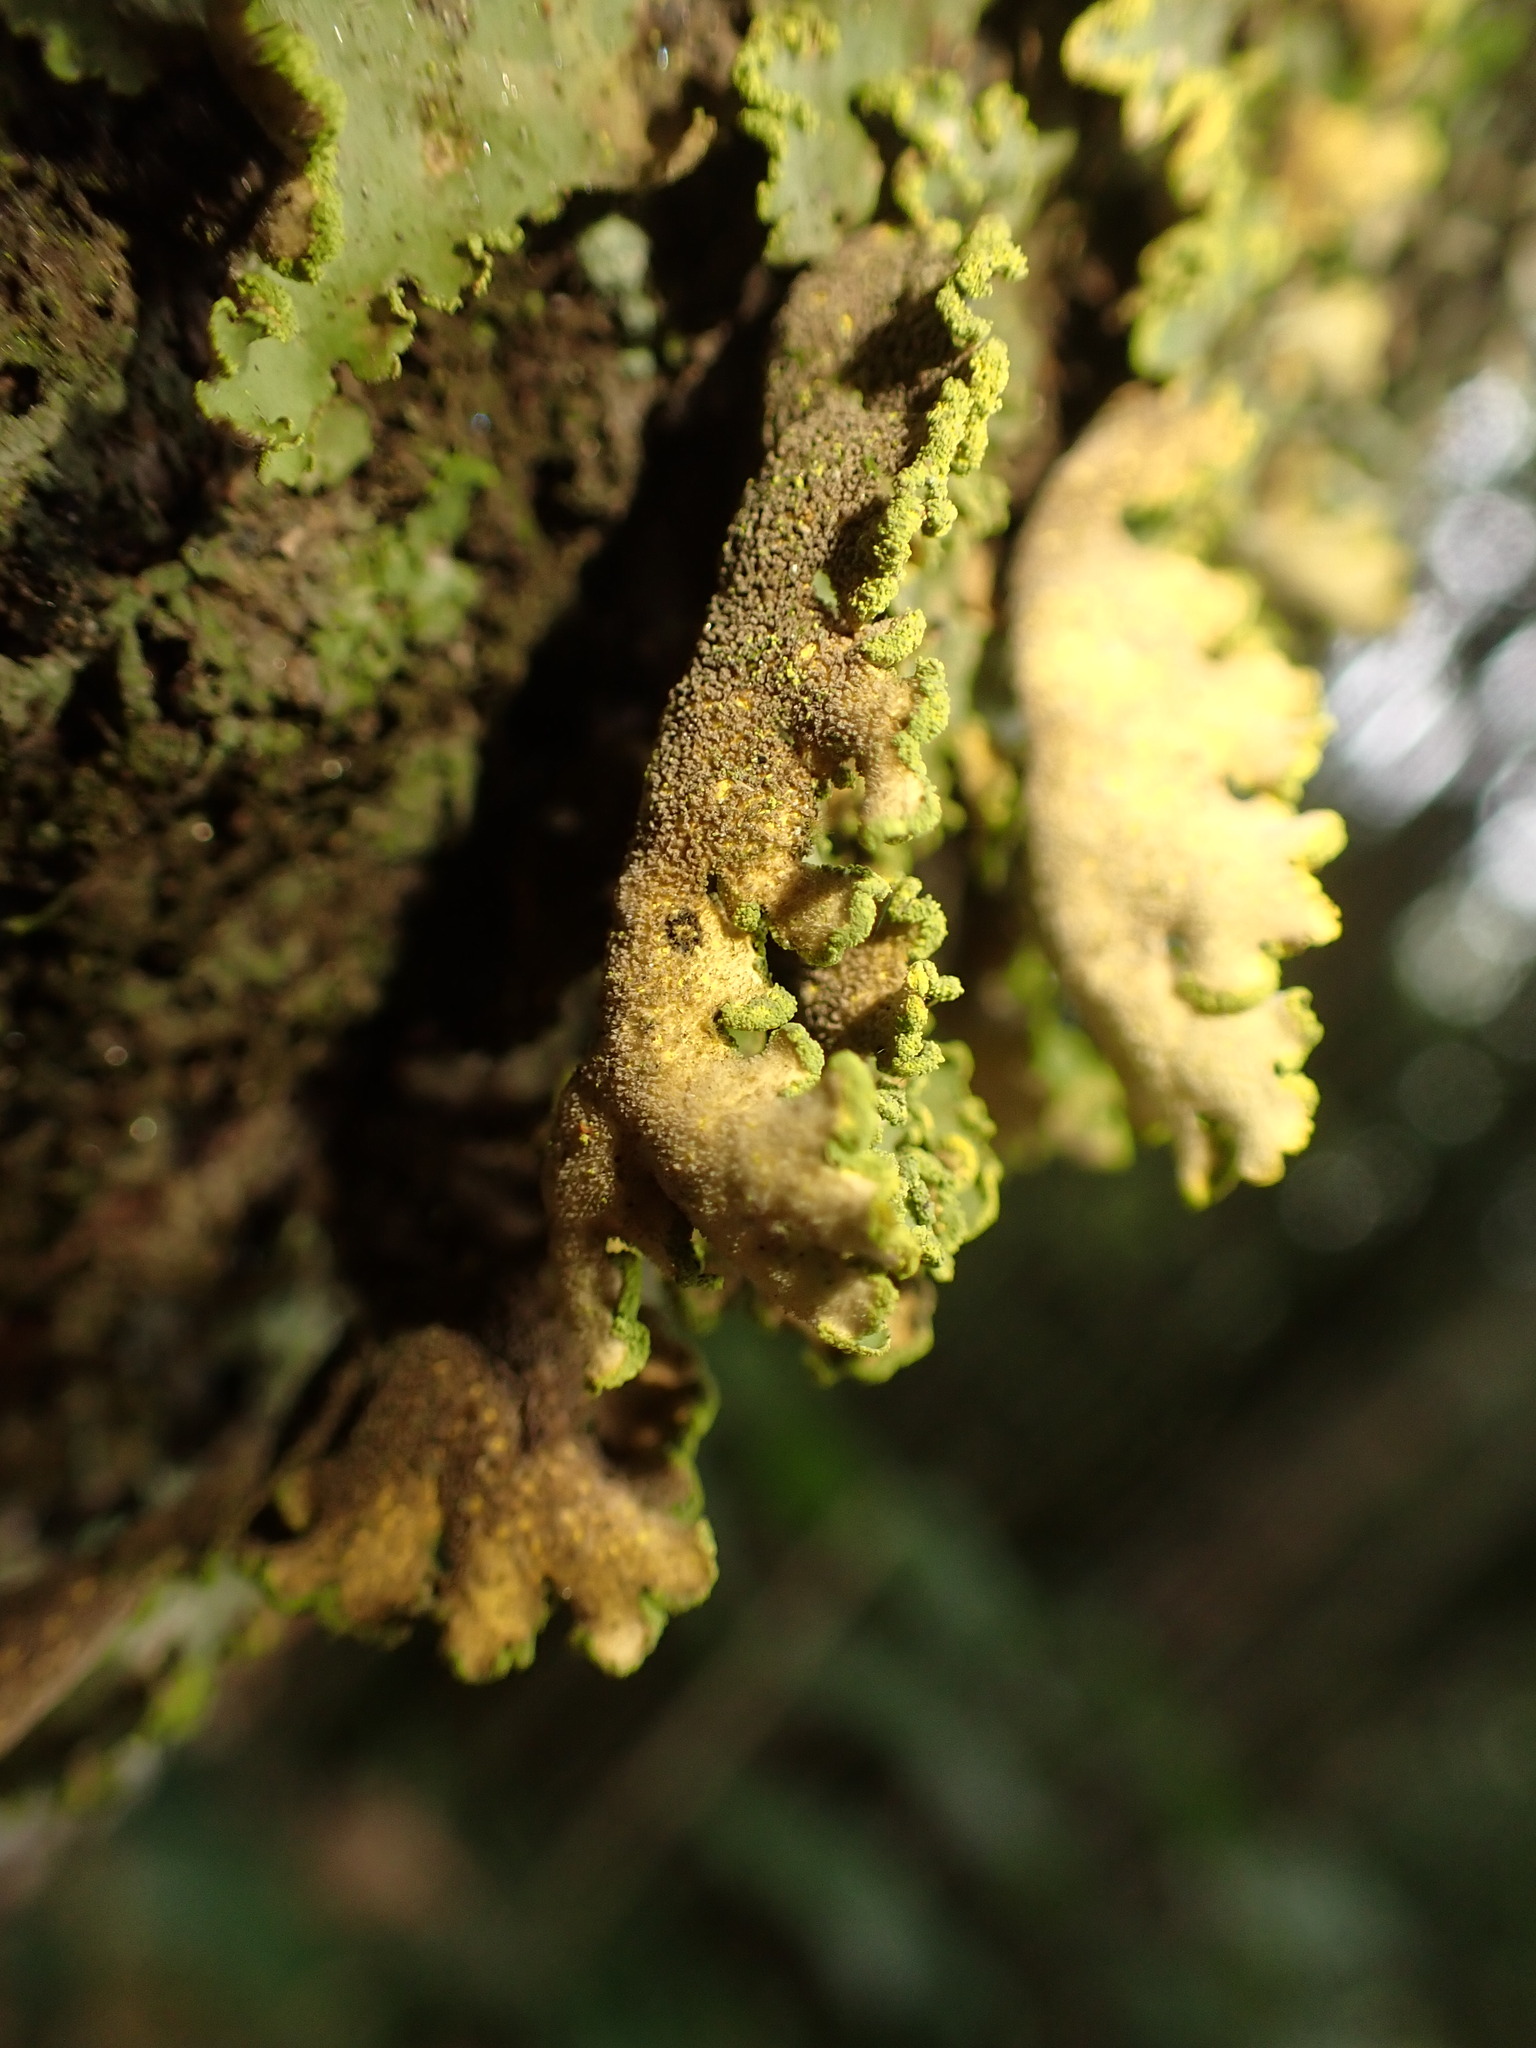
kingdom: Fungi
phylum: Ascomycota
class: Lecanoromycetes
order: Peltigerales
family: Lobariaceae
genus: Pseudocyphellaria
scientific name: Pseudocyphellaria aurata
